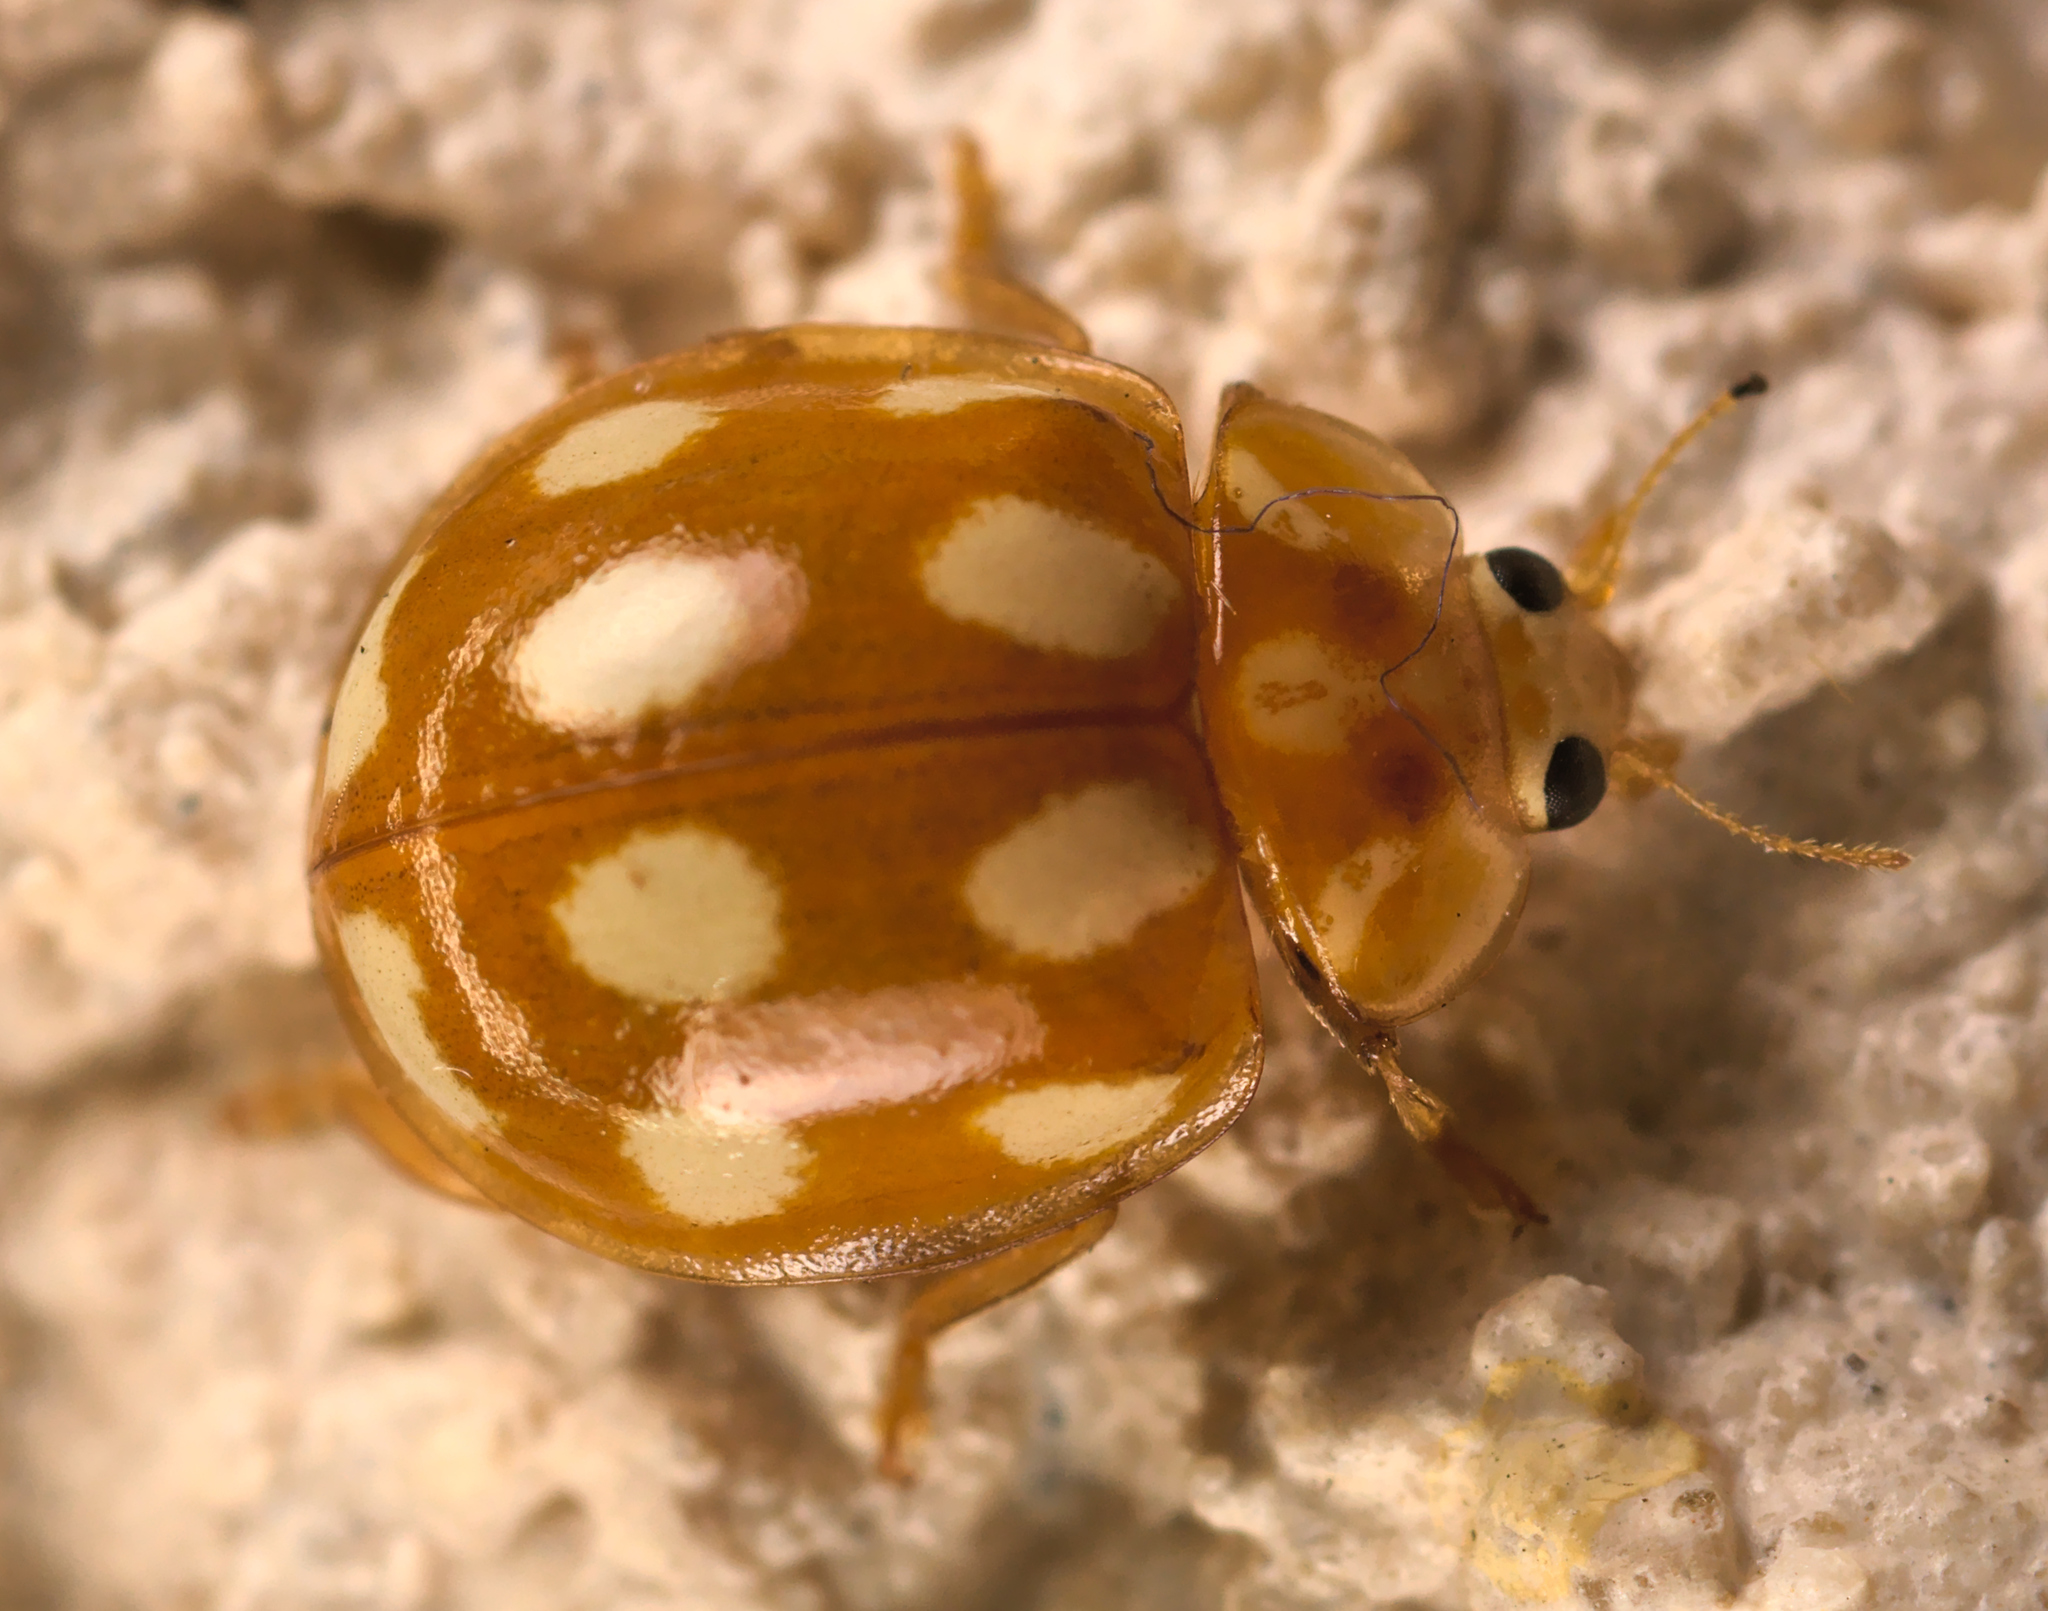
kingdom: Animalia
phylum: Arthropoda
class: Insecta
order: Coleoptera
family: Coccinellidae
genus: Calvia
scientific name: Calvia decemguttata
